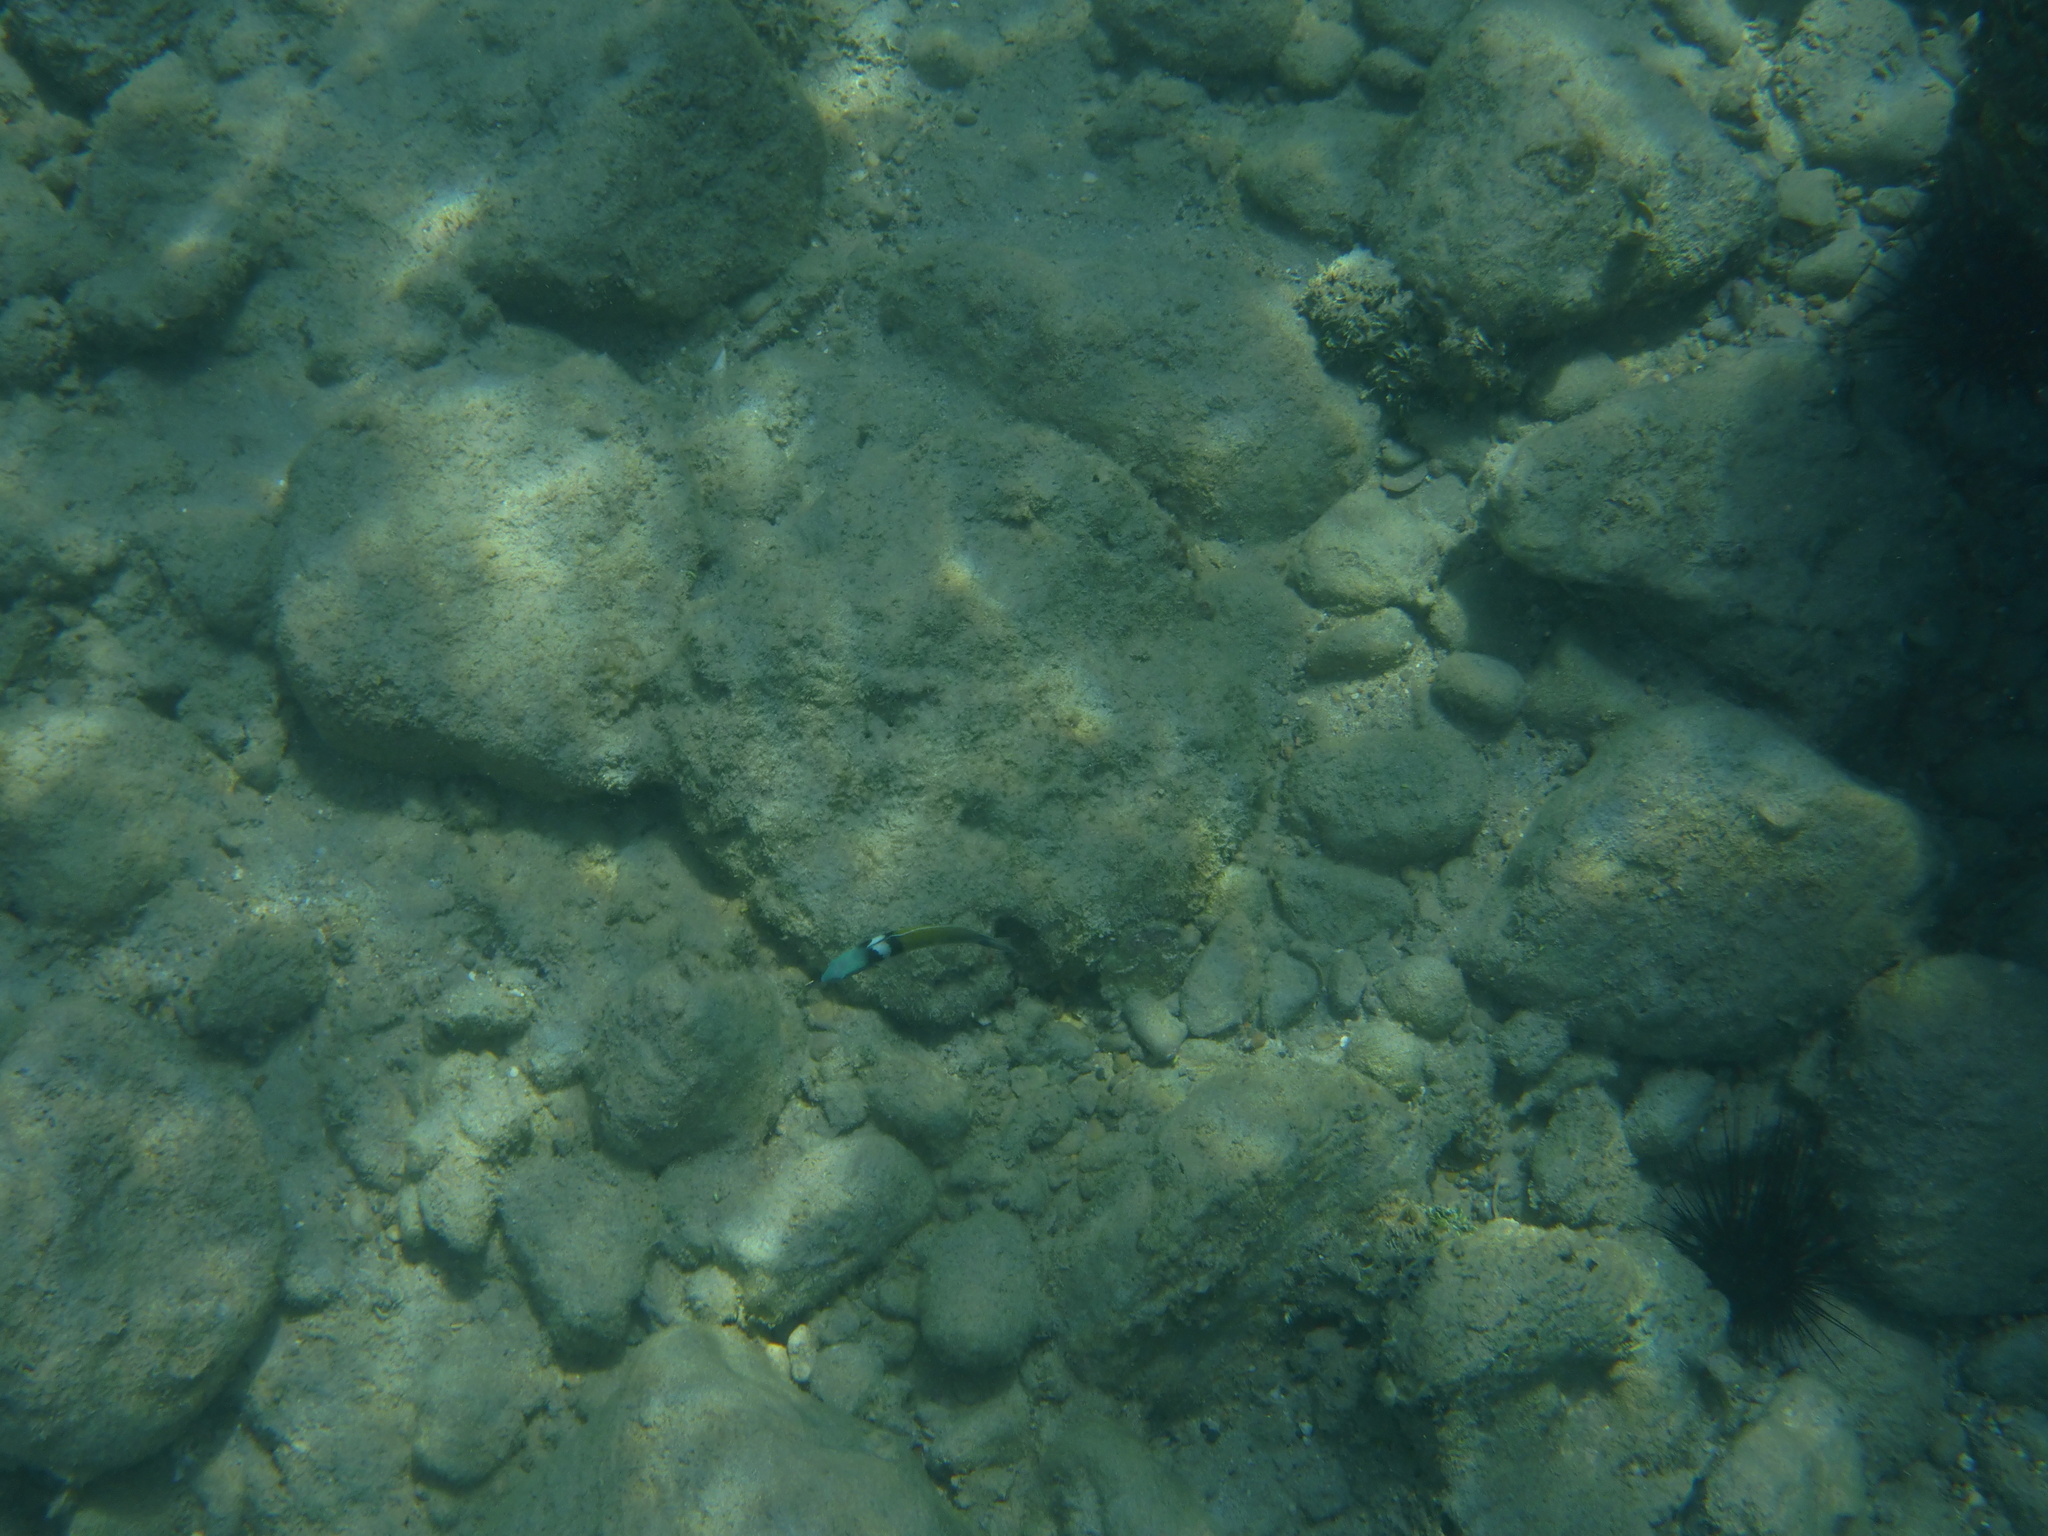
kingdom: Animalia
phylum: Chordata
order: Perciformes
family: Labridae
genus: Thalassoma
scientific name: Thalassoma bifasciatum
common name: Bluehead wrasse
